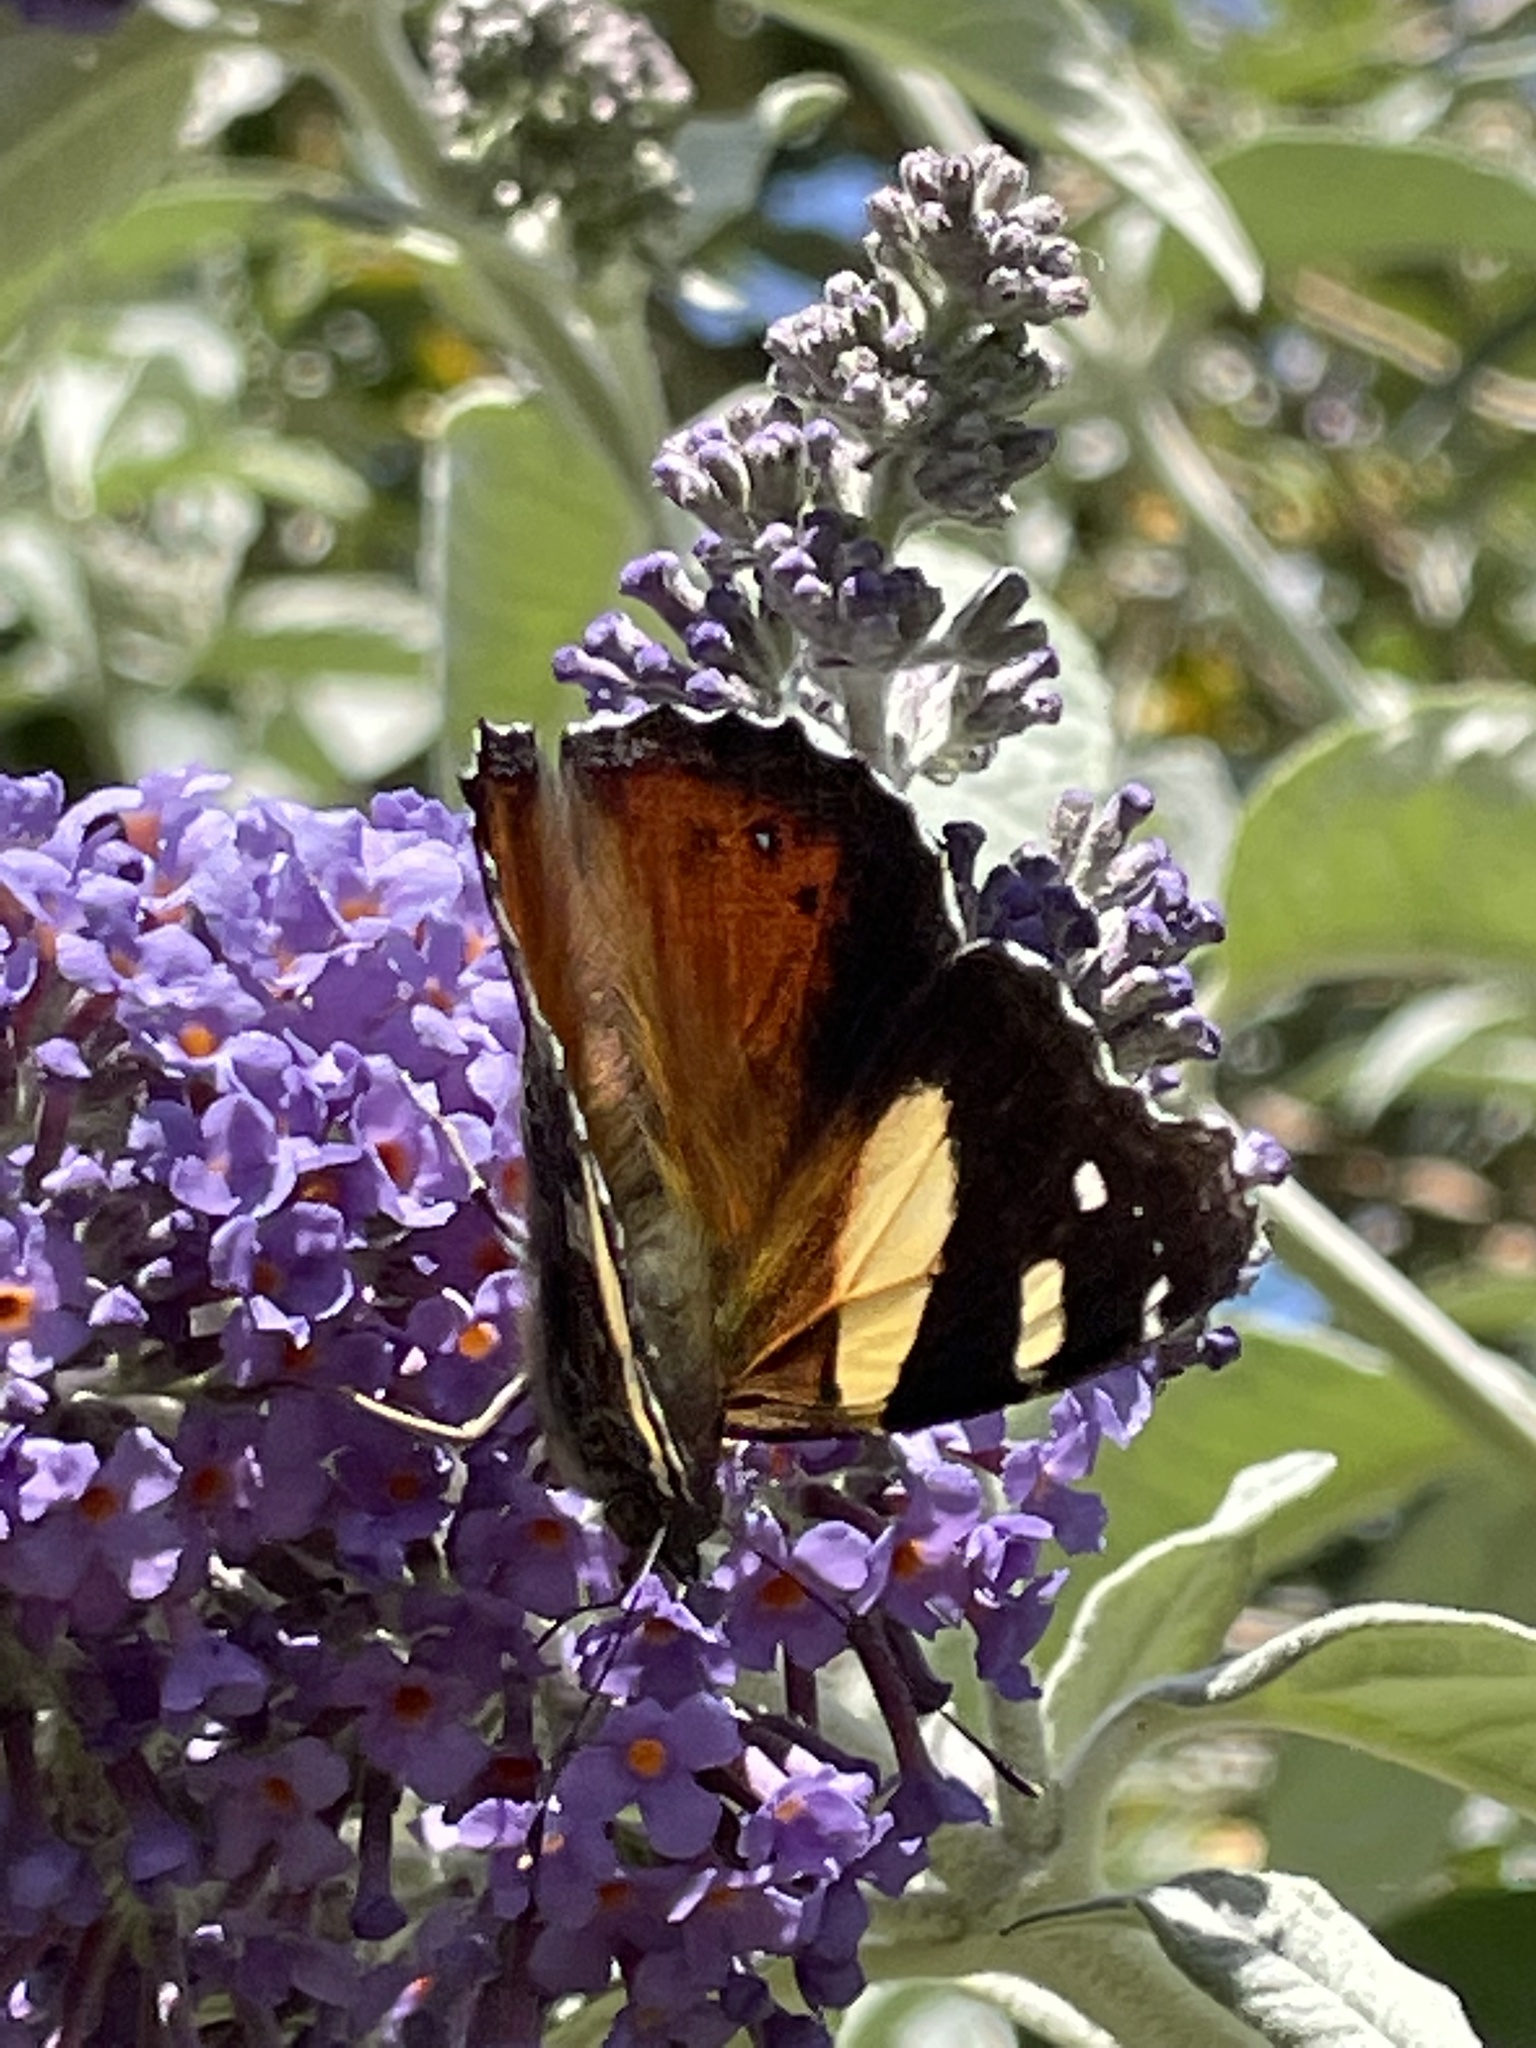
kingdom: Animalia
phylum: Arthropoda
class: Insecta
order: Lepidoptera
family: Nymphalidae
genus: Vanessa
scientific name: Vanessa itea
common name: Yellow admiral
